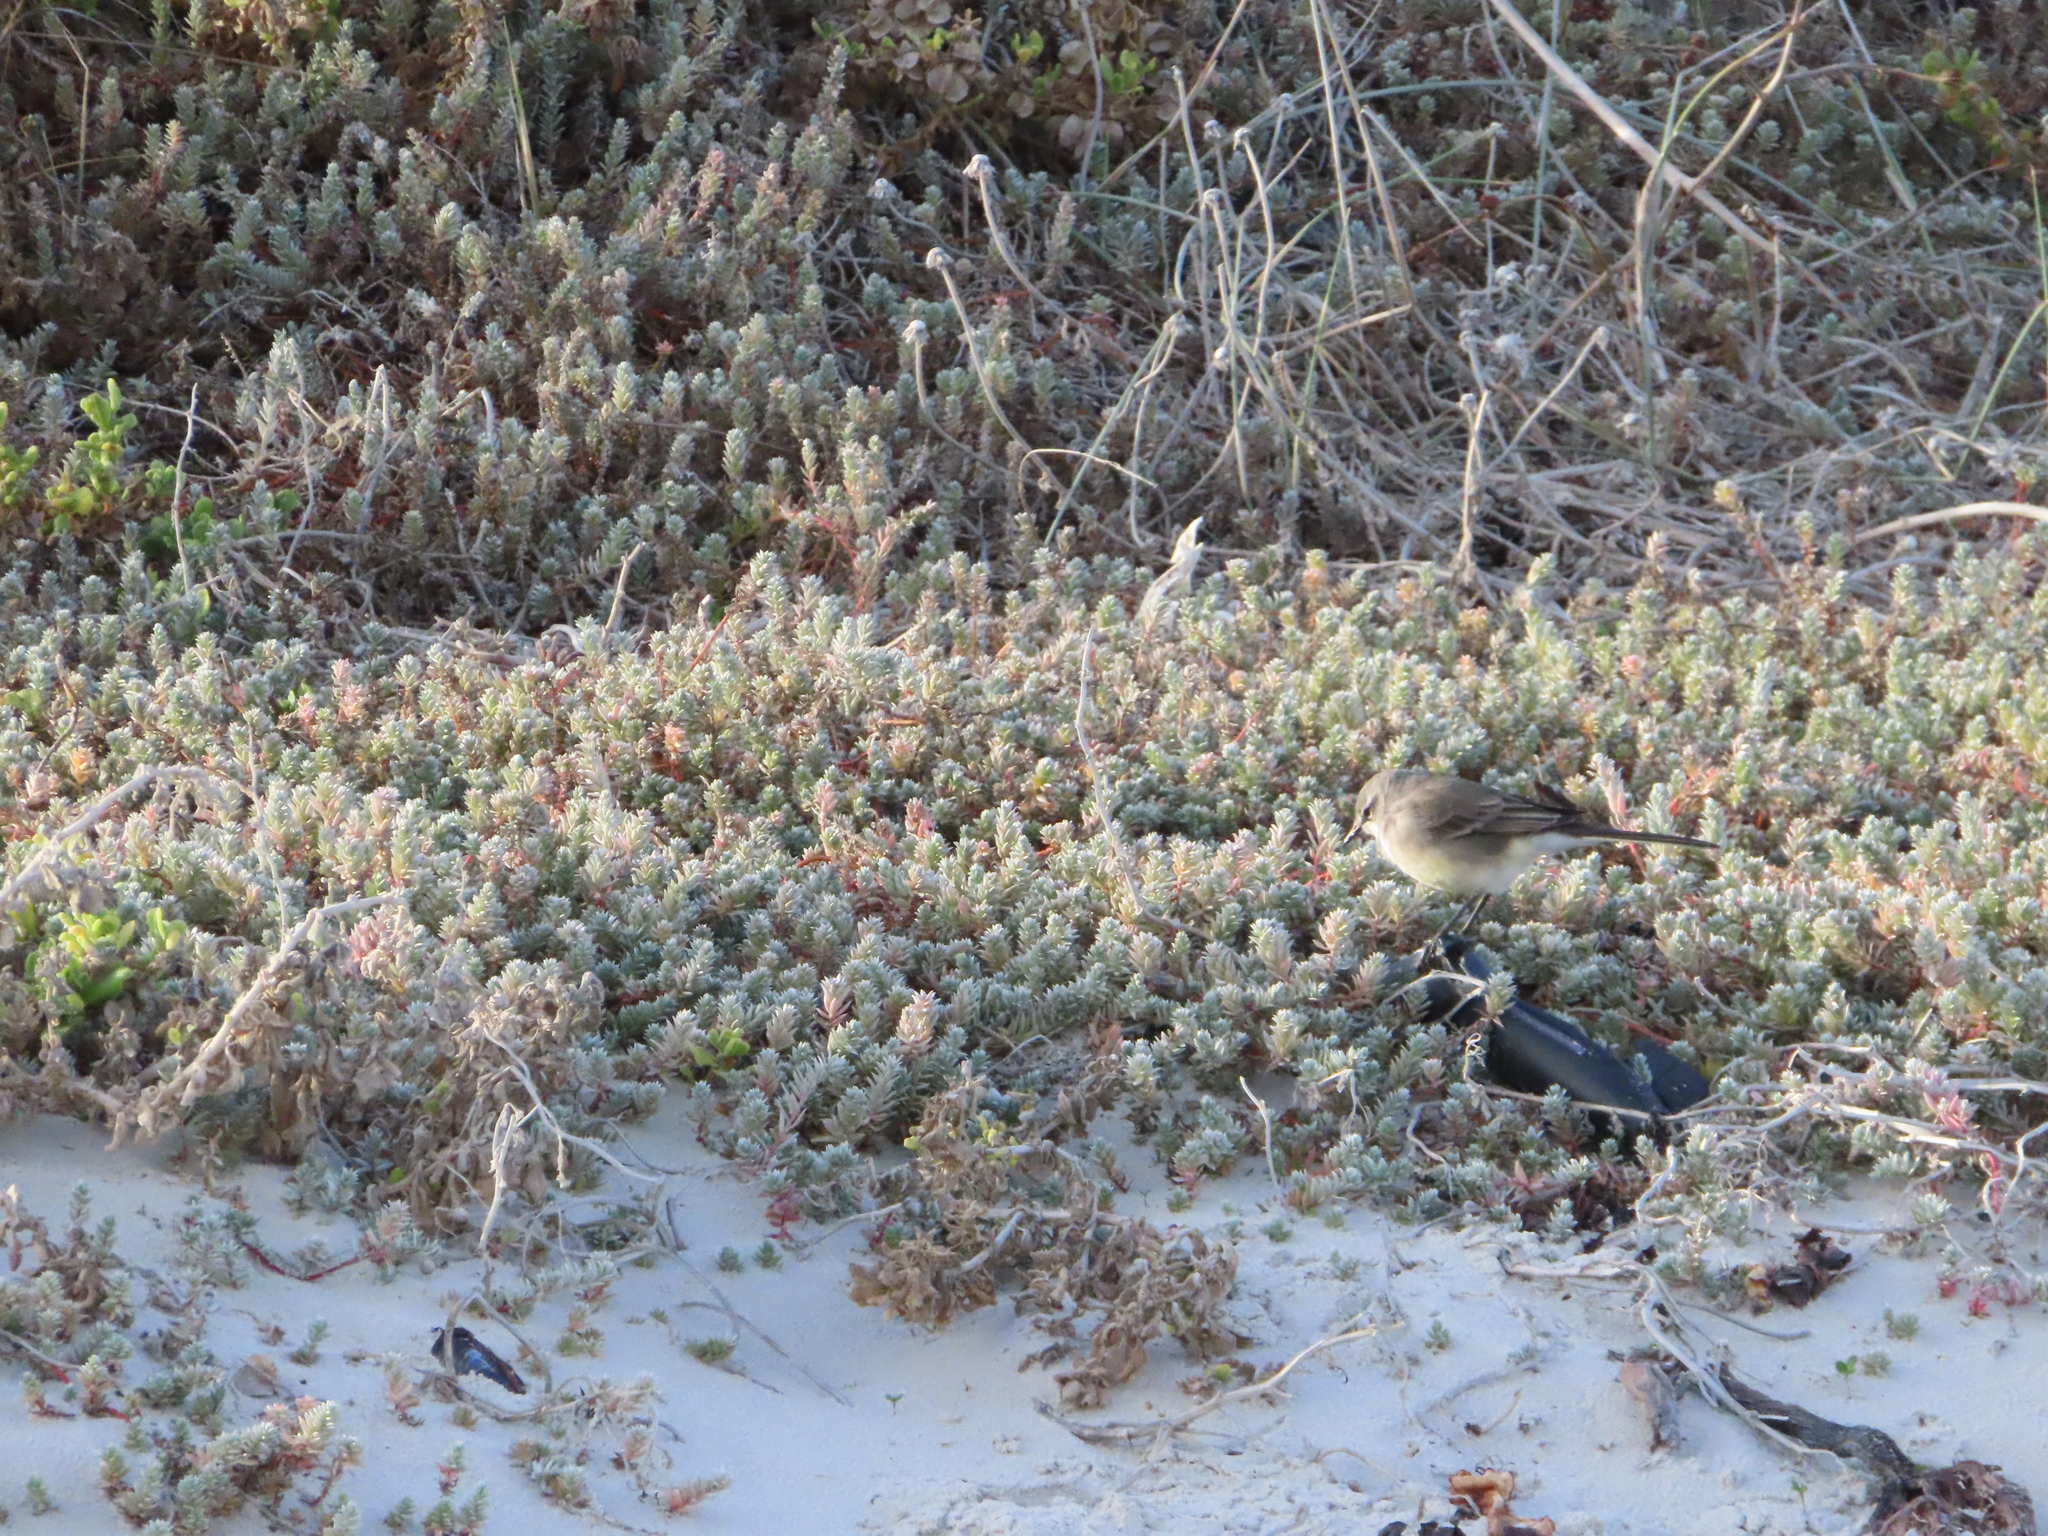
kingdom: Animalia
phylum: Chordata
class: Aves
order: Passeriformes
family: Motacillidae
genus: Motacilla
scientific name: Motacilla capensis
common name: Cape wagtail
